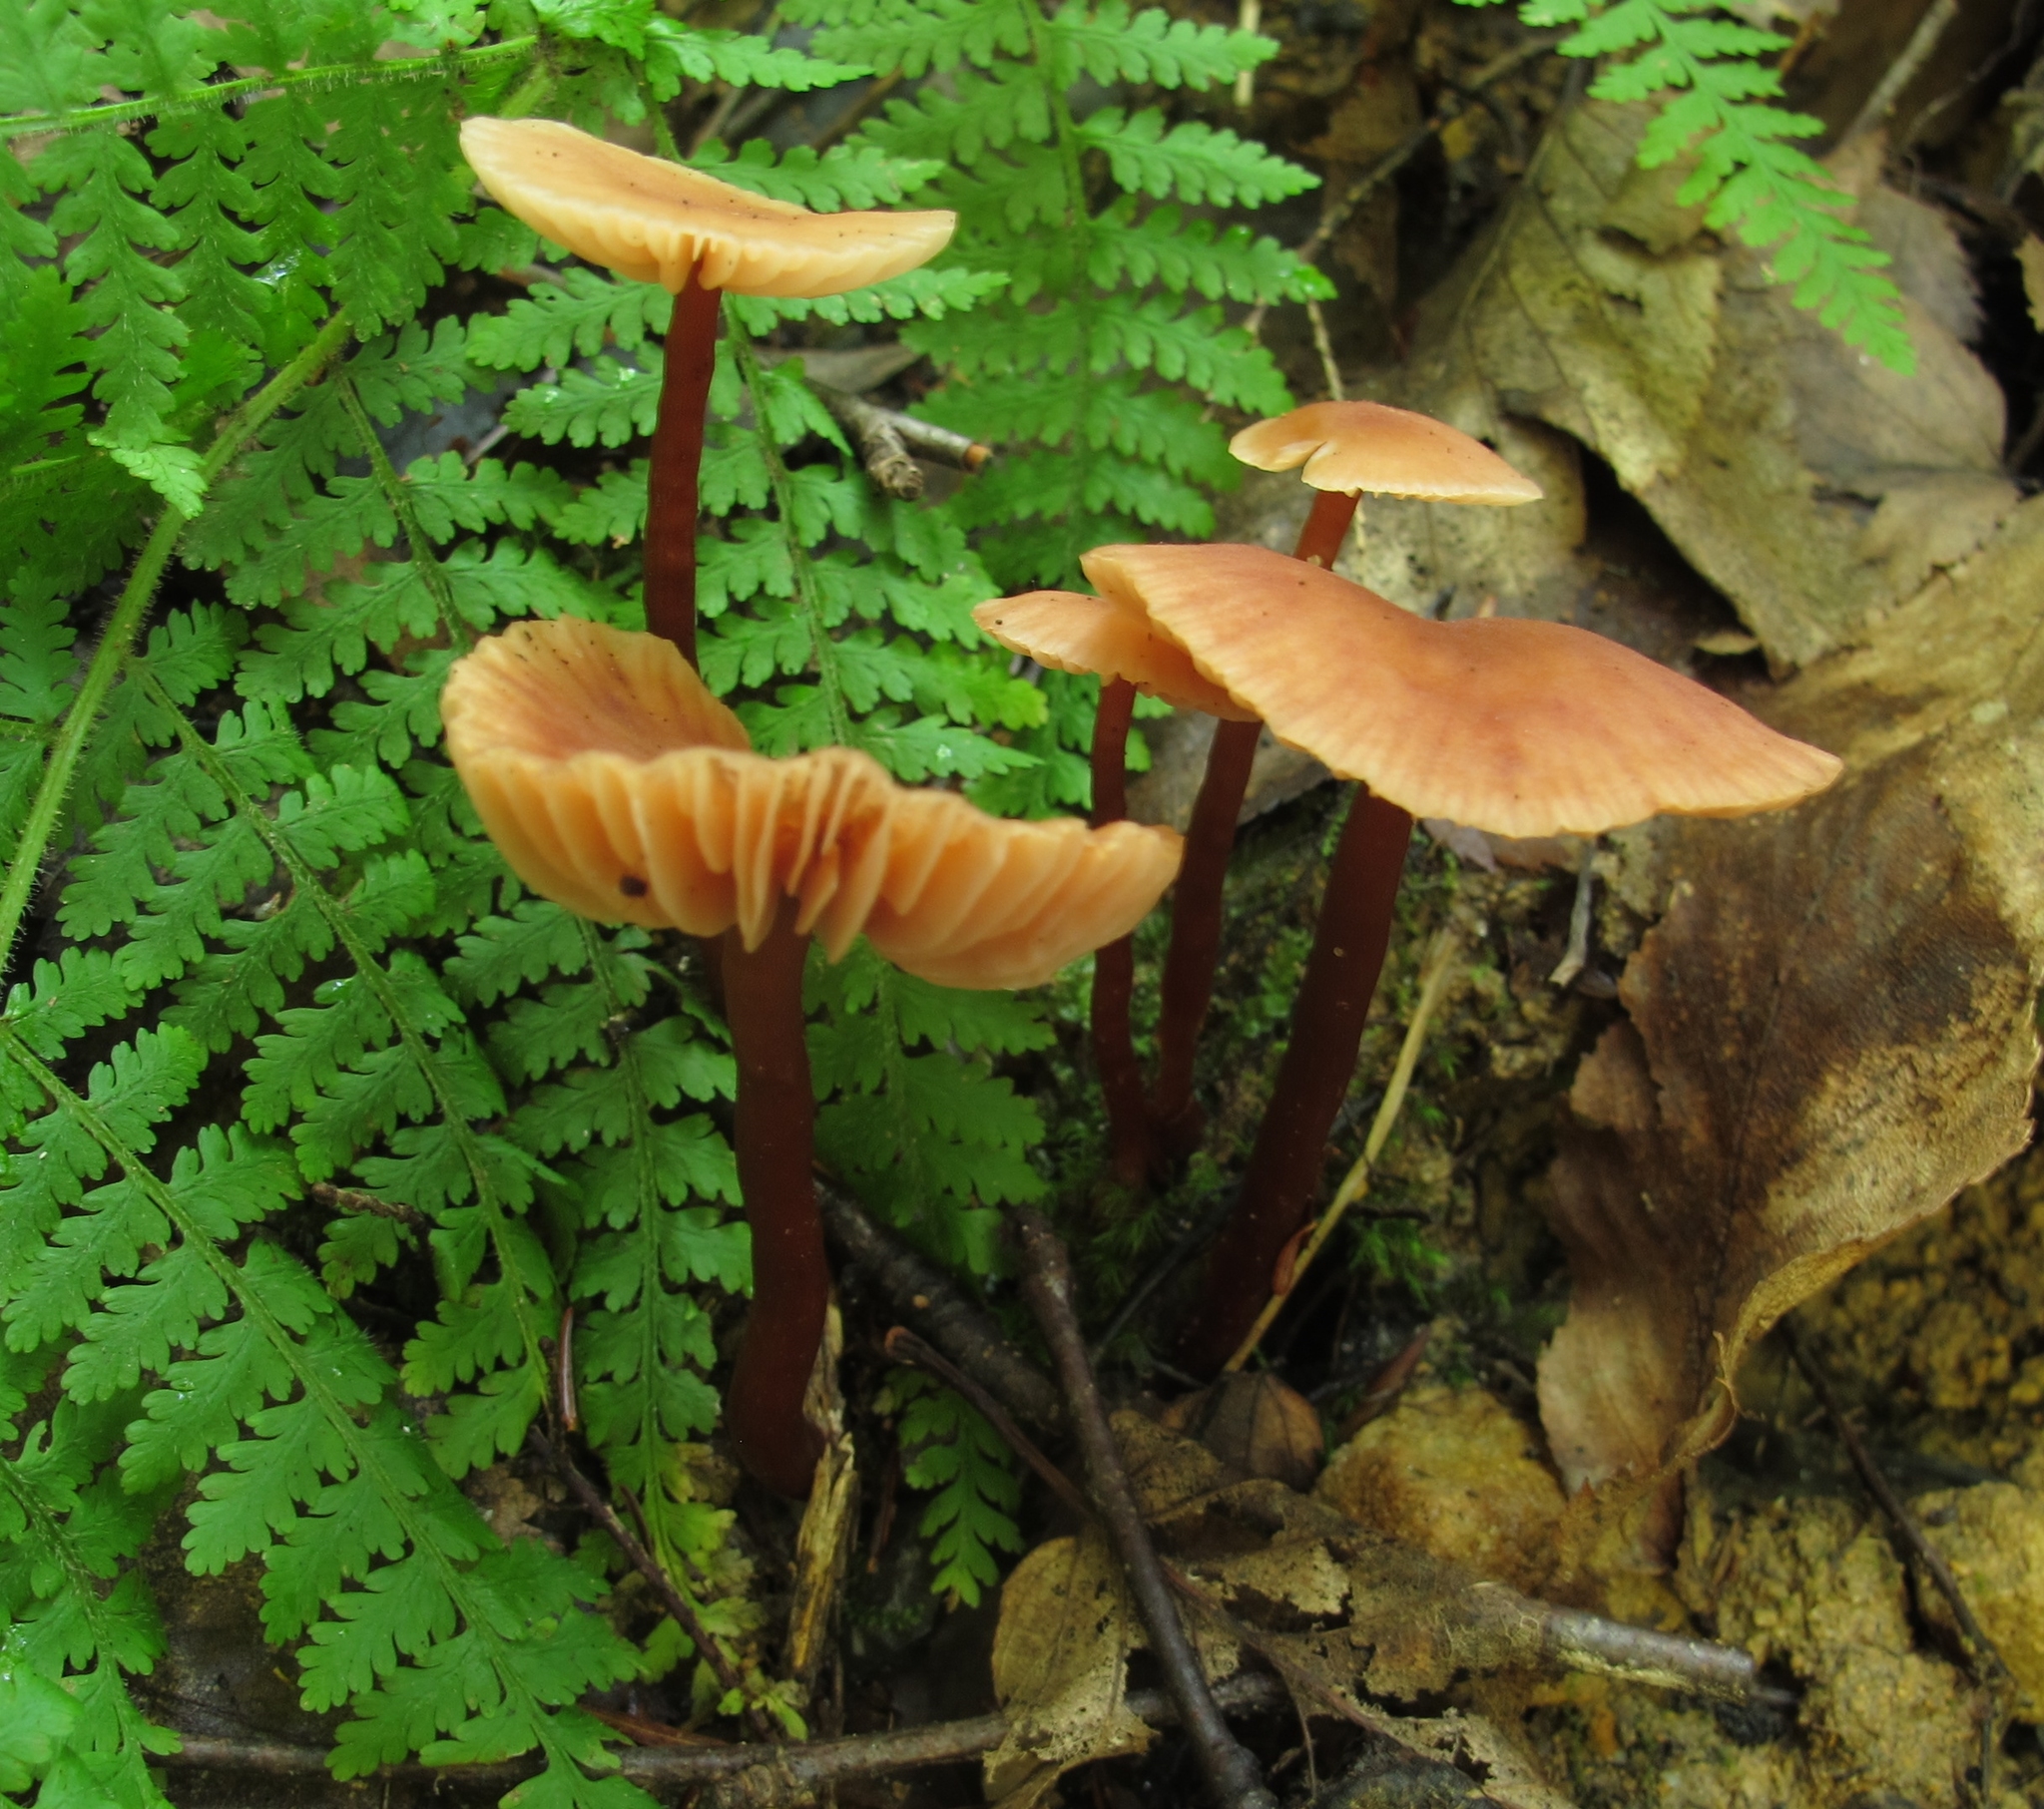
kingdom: Fungi
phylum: Basidiomycota
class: Agaricomycetes
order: Agaricales
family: Hydnangiaceae
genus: Laccaria
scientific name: Laccaria laccata
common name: Deceiver
